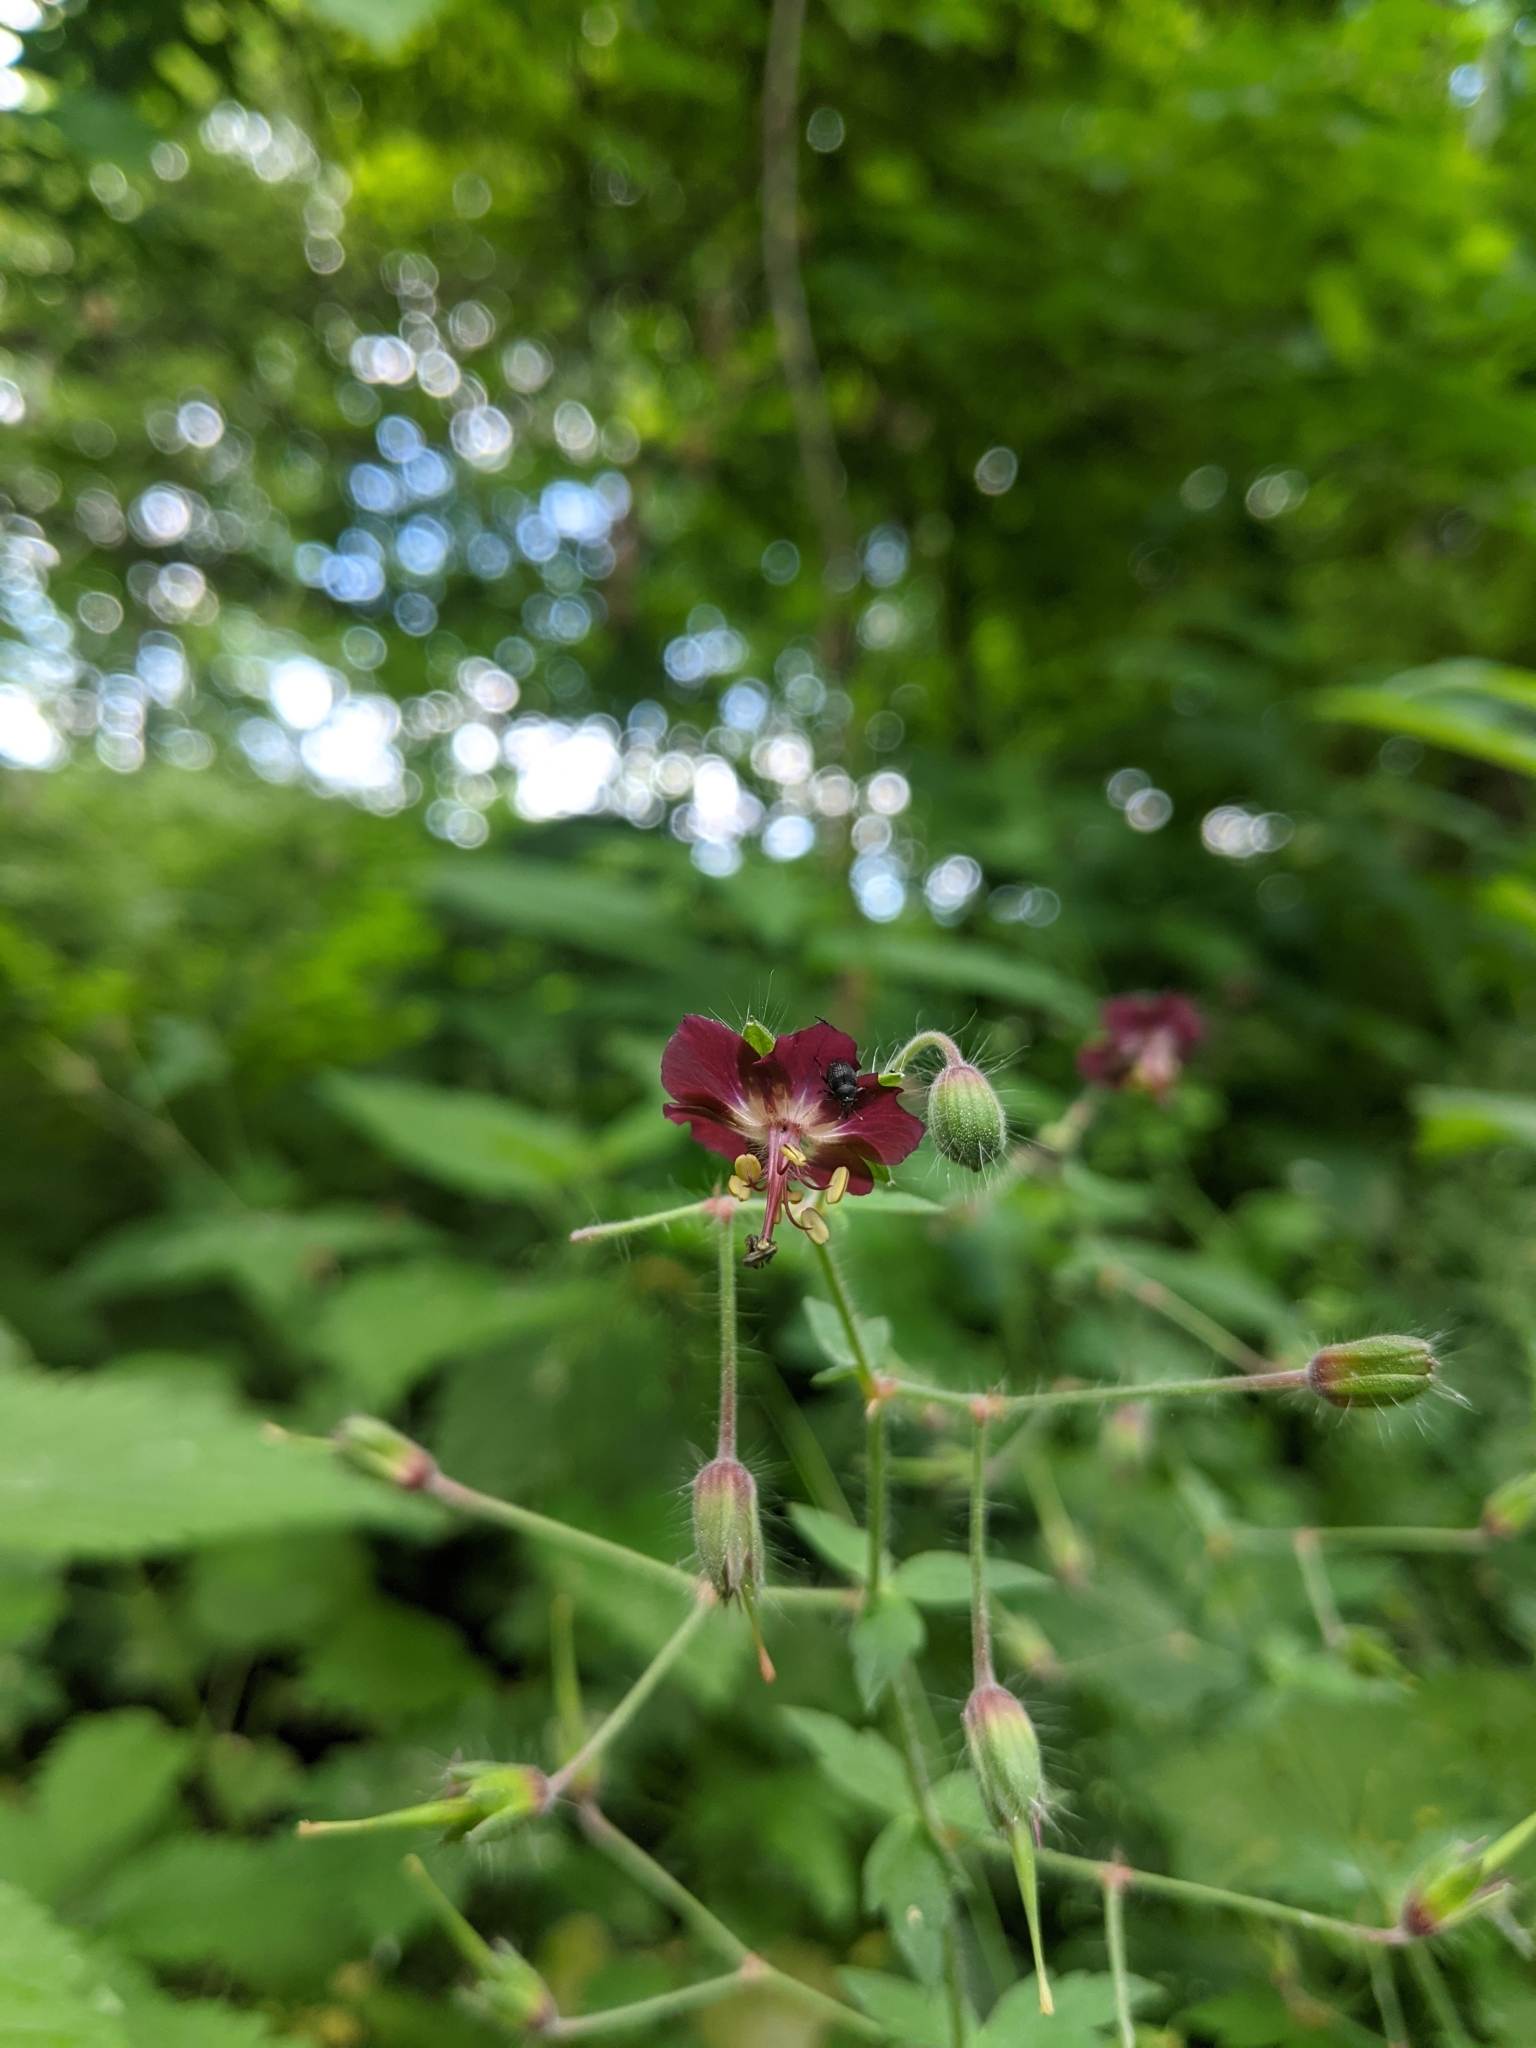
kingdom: Plantae
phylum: Tracheophyta
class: Magnoliopsida
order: Geraniales
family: Geraniaceae
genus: Geranium
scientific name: Geranium phaeum
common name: Dusky crane's-bill
